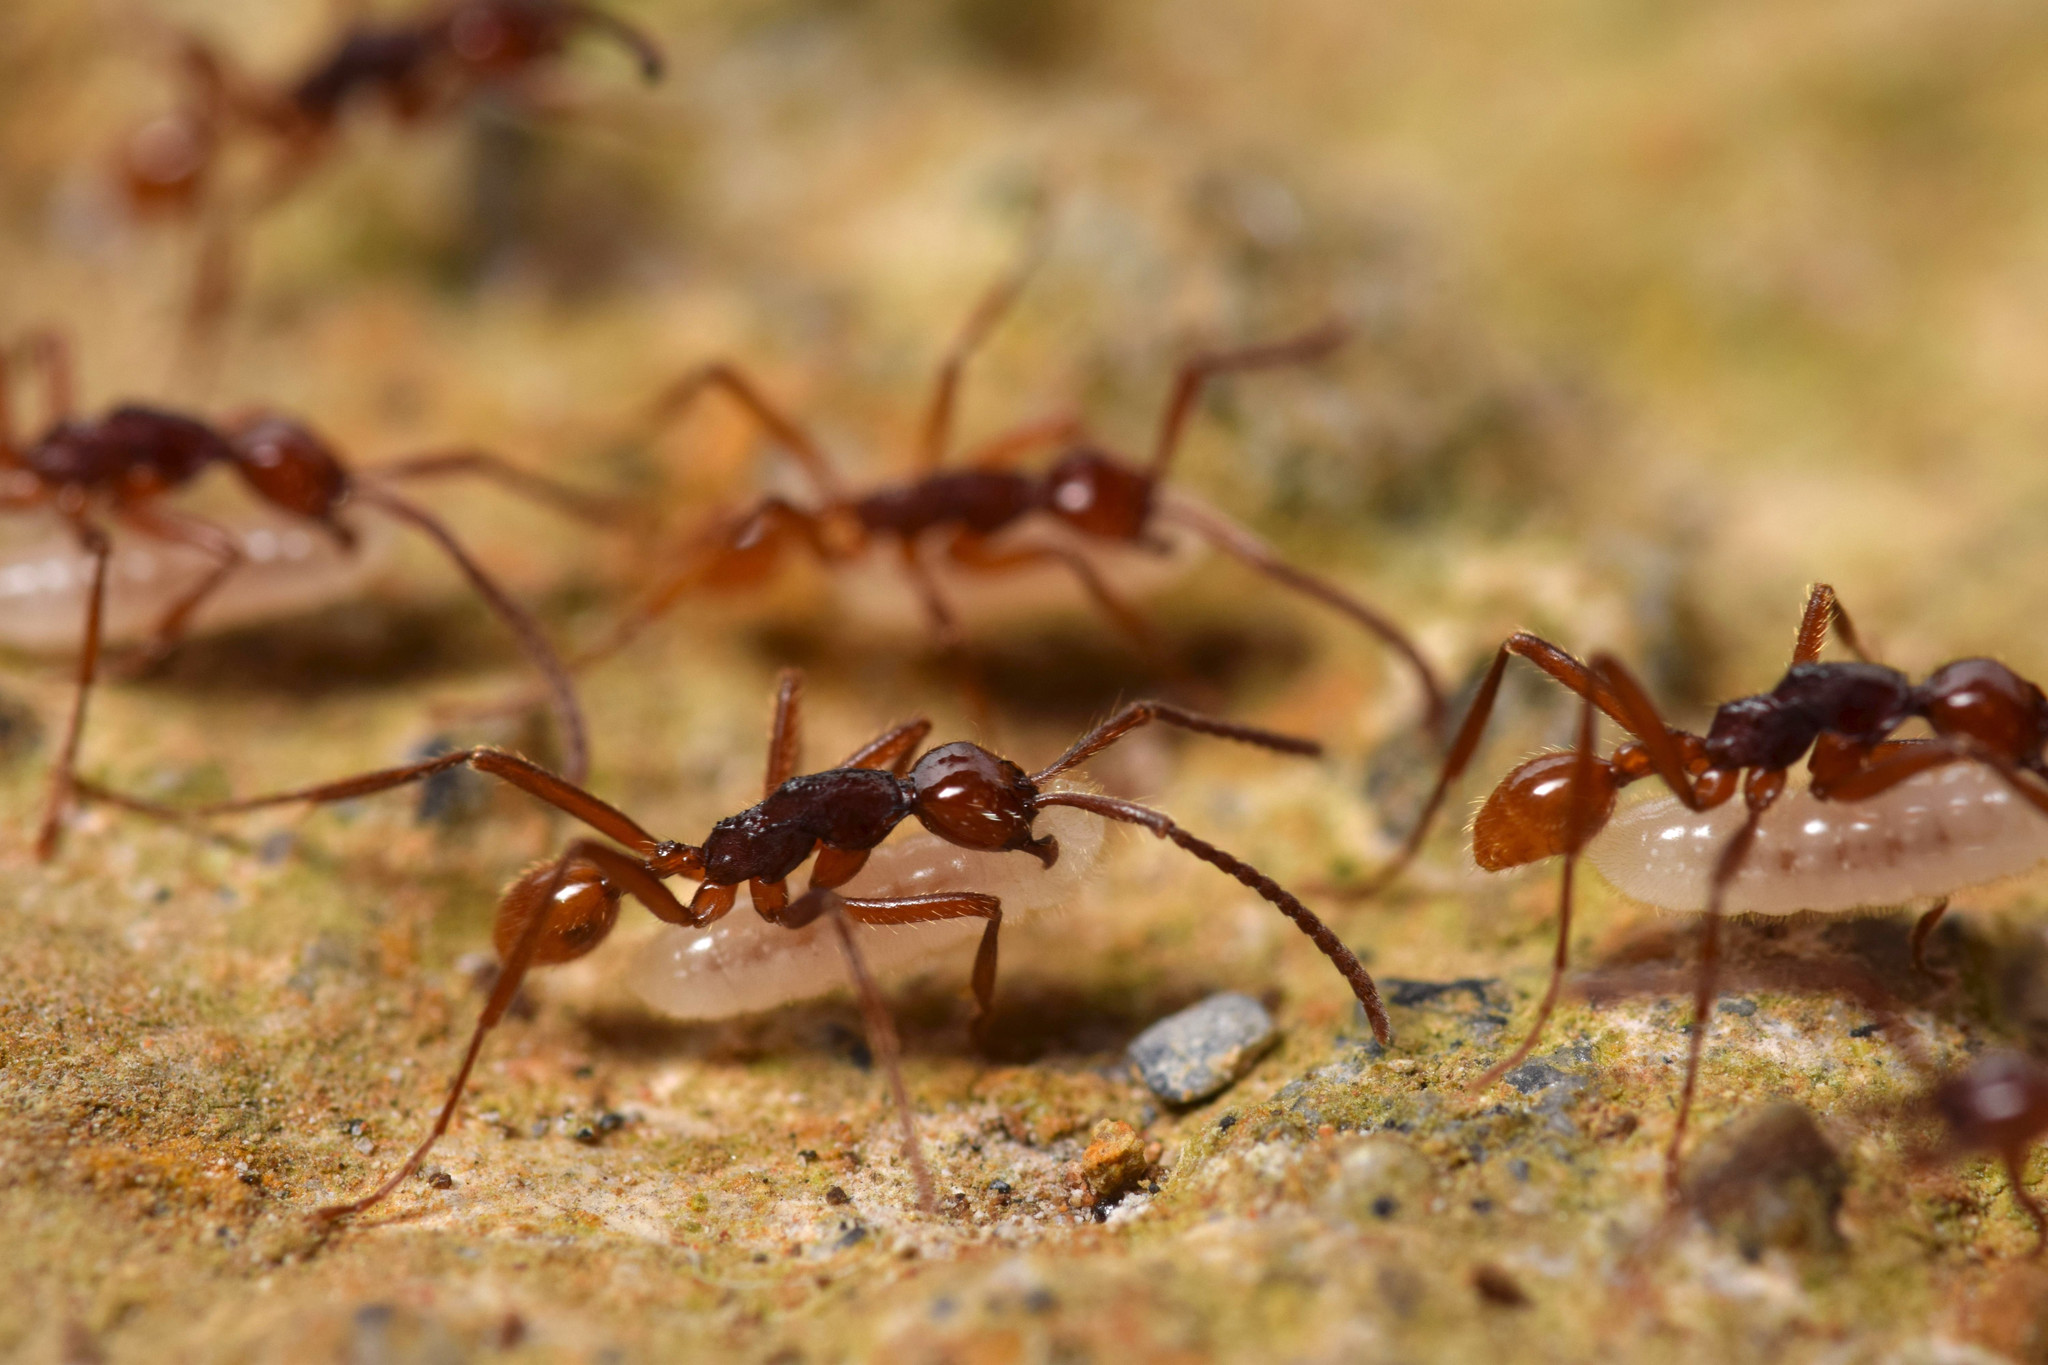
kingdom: Animalia
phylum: Arthropoda
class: Insecta
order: Hymenoptera
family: Formicidae
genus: Neivamyrmex
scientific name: Neivamyrmex gibbatus
